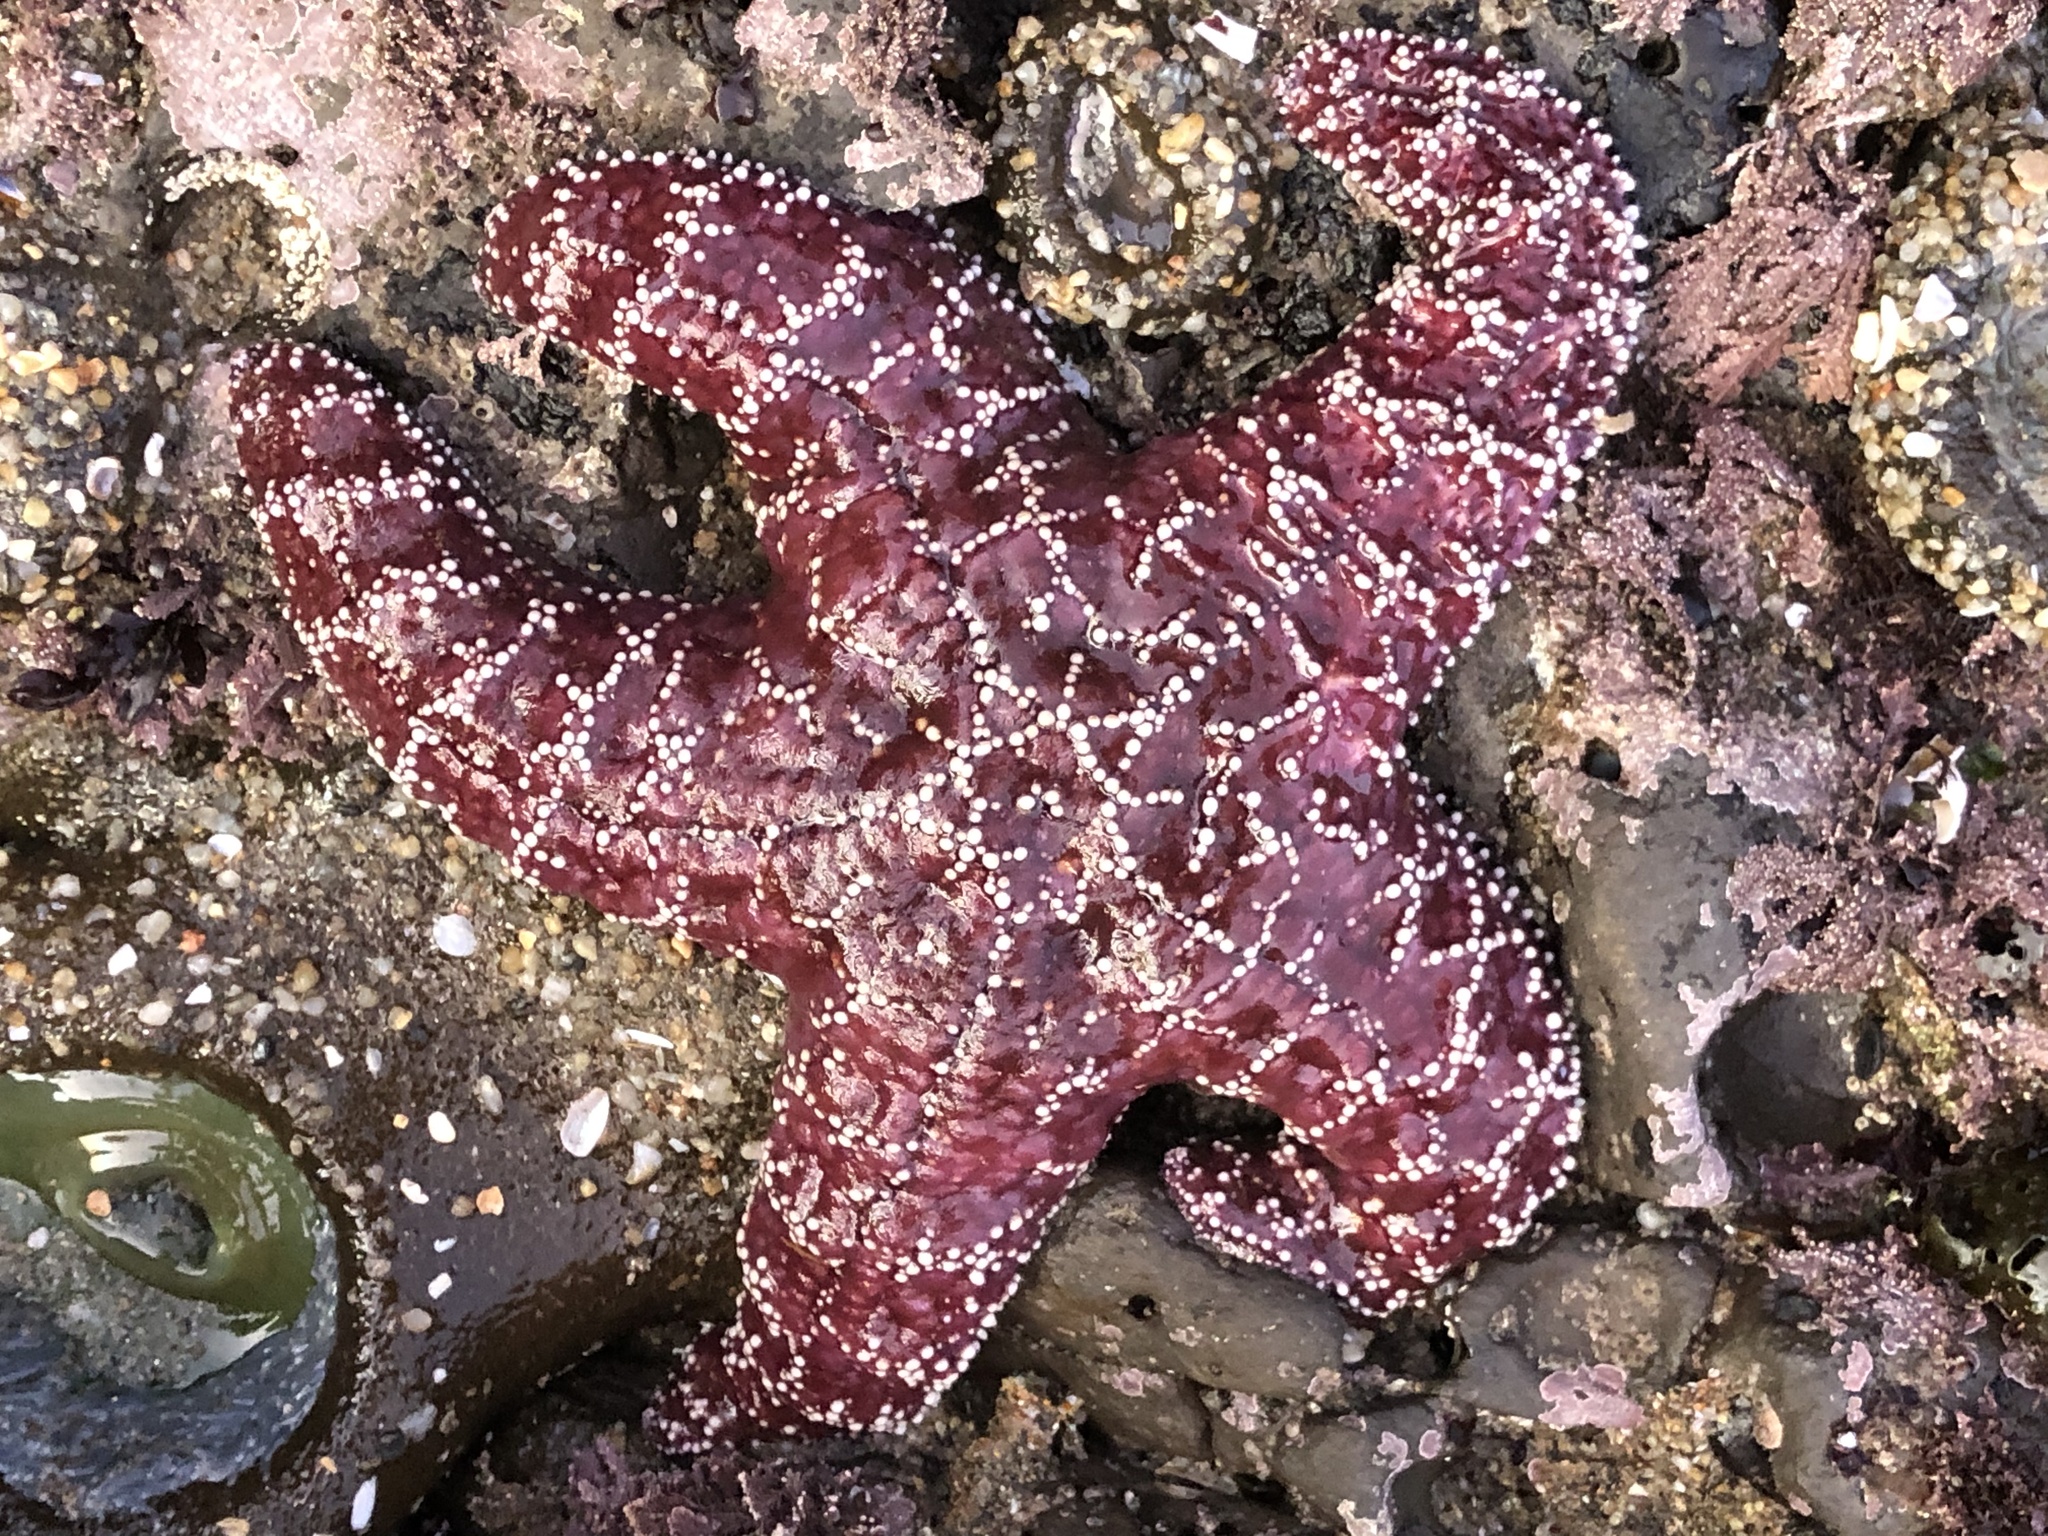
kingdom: Animalia
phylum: Echinodermata
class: Asteroidea
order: Forcipulatida
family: Asteriidae
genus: Pisaster
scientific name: Pisaster ochraceus
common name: Ochre stars
